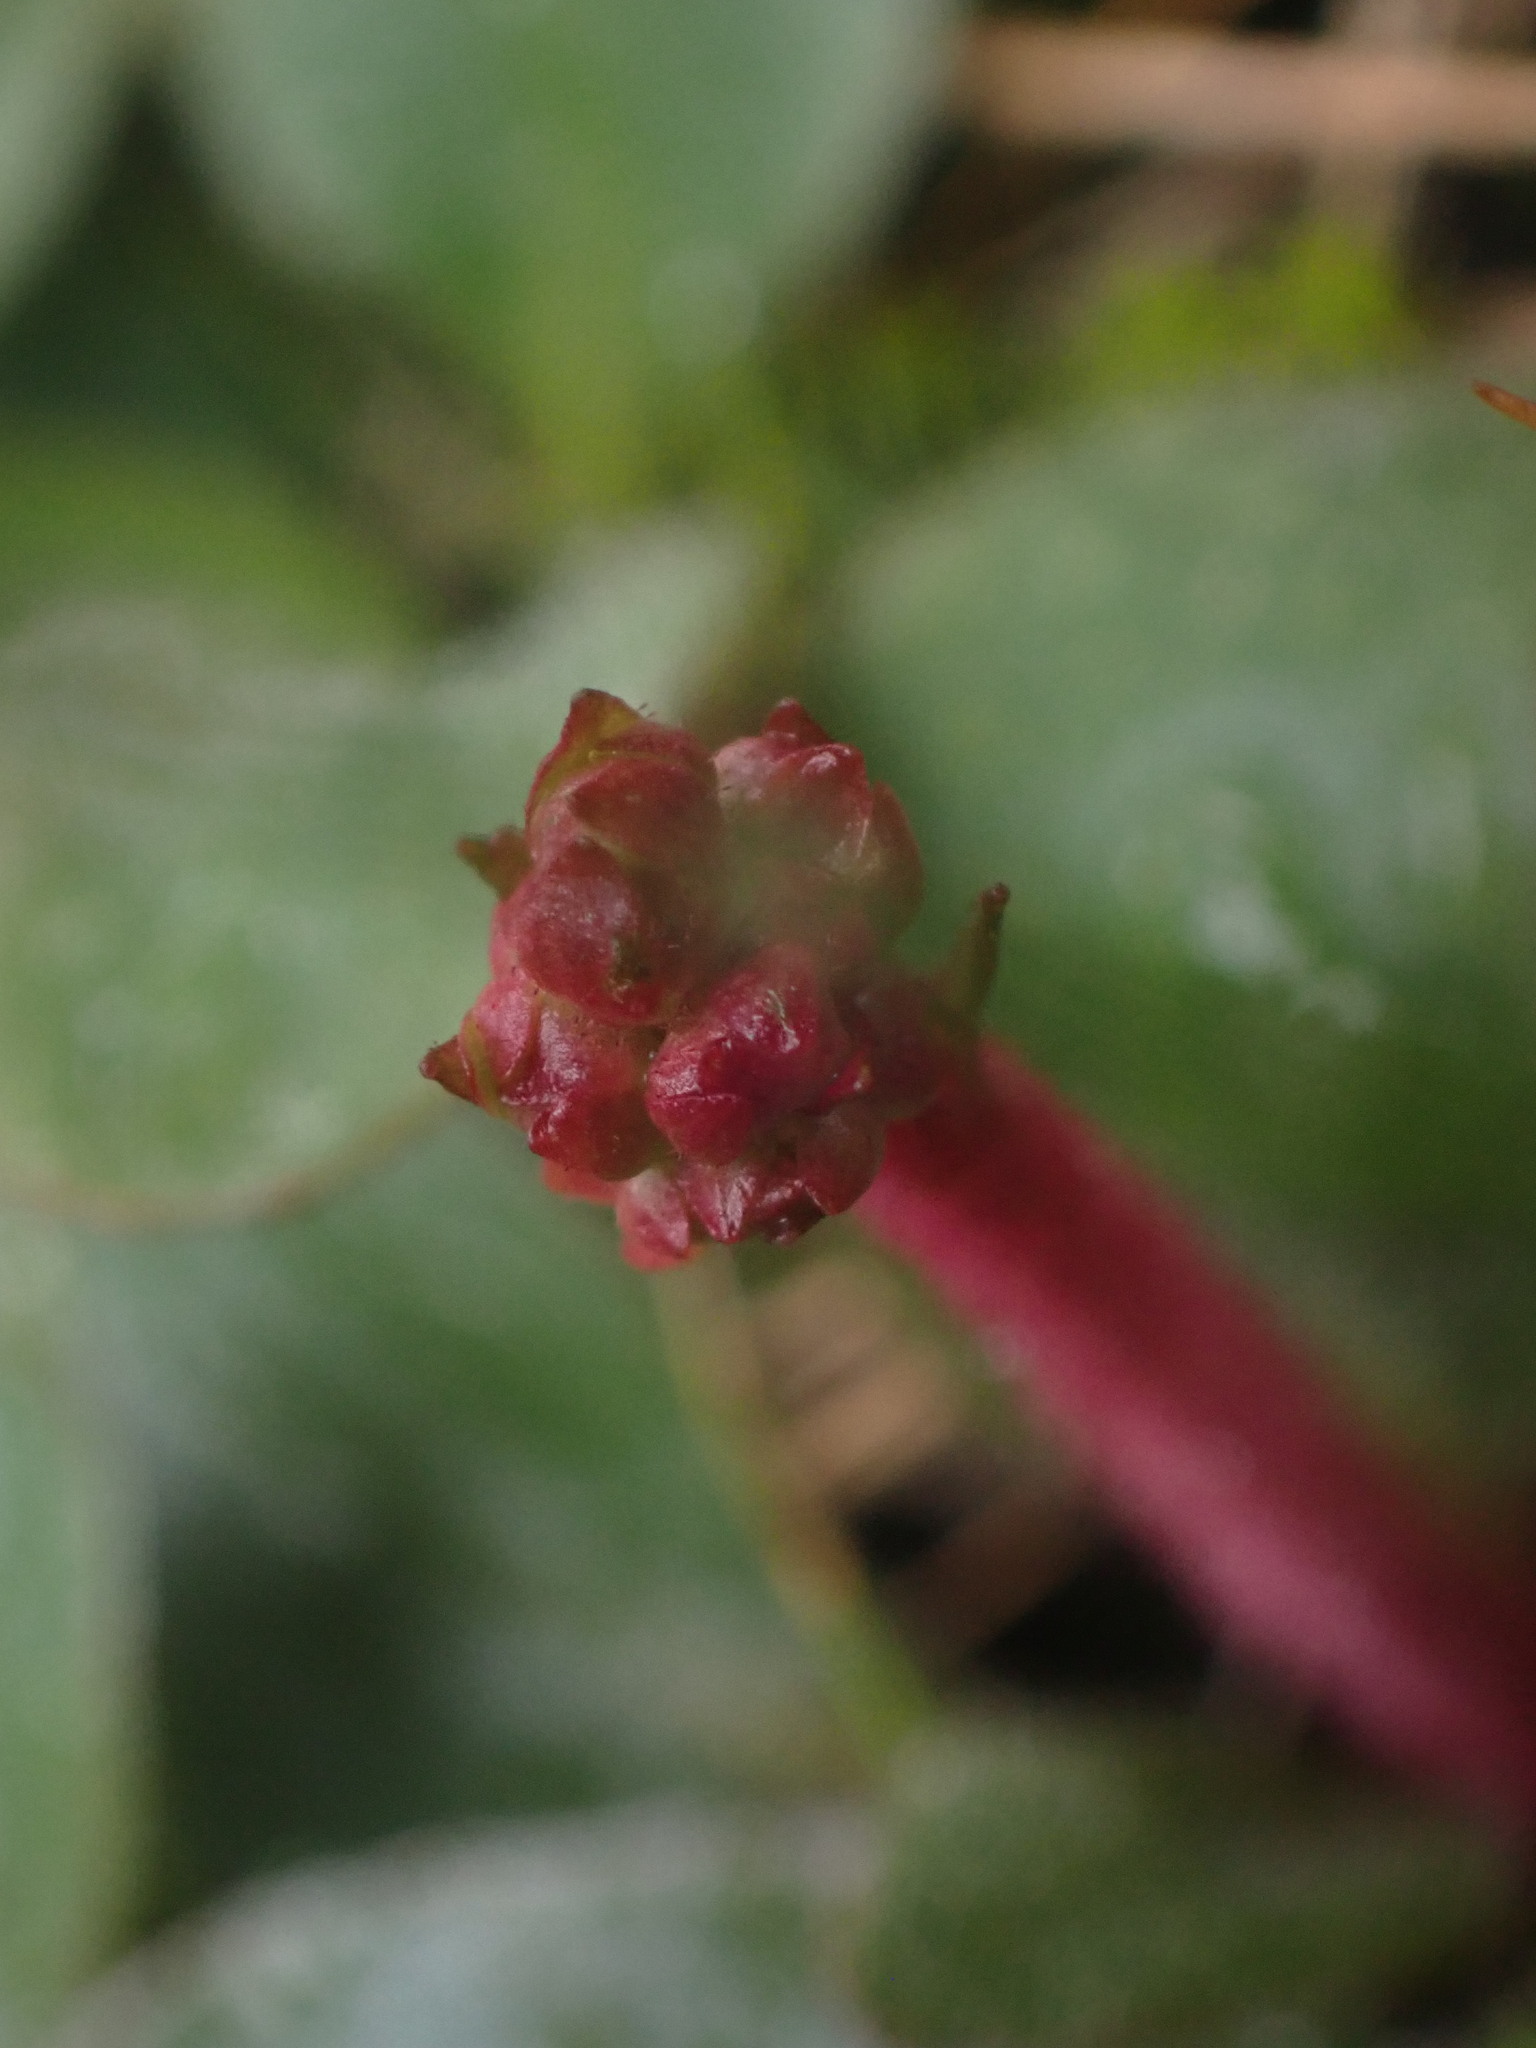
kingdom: Plantae
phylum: Tracheophyta
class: Magnoliopsida
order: Saxifragales
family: Saxifragaceae
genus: Micranthes
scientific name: Micranthes integrifolia
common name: Wholeleaf saxifrage
